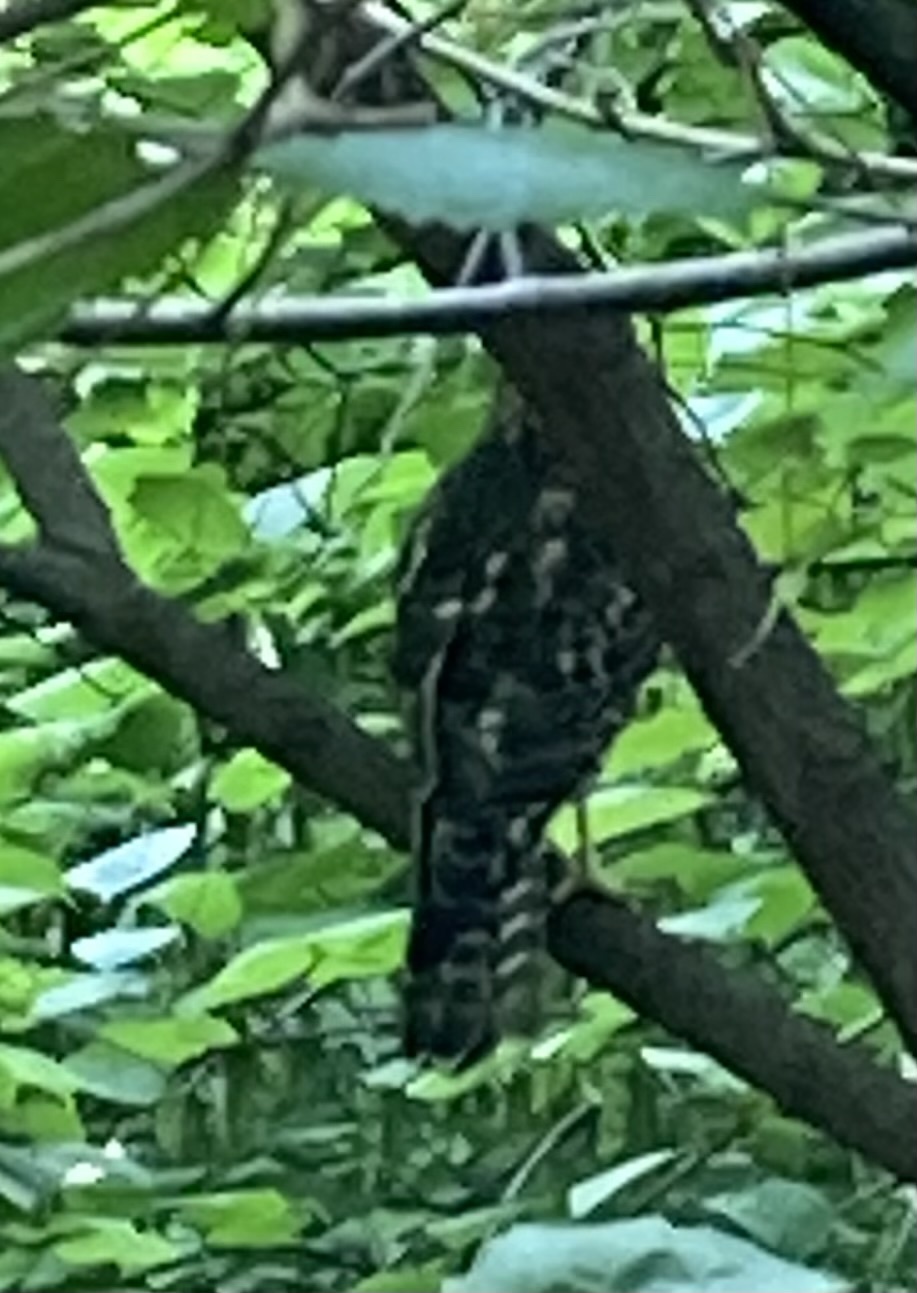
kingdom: Animalia
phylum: Chordata
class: Aves
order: Accipitriformes
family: Accipitridae
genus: Buteo
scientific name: Buteo lineatus
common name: Red-shouldered hawk
